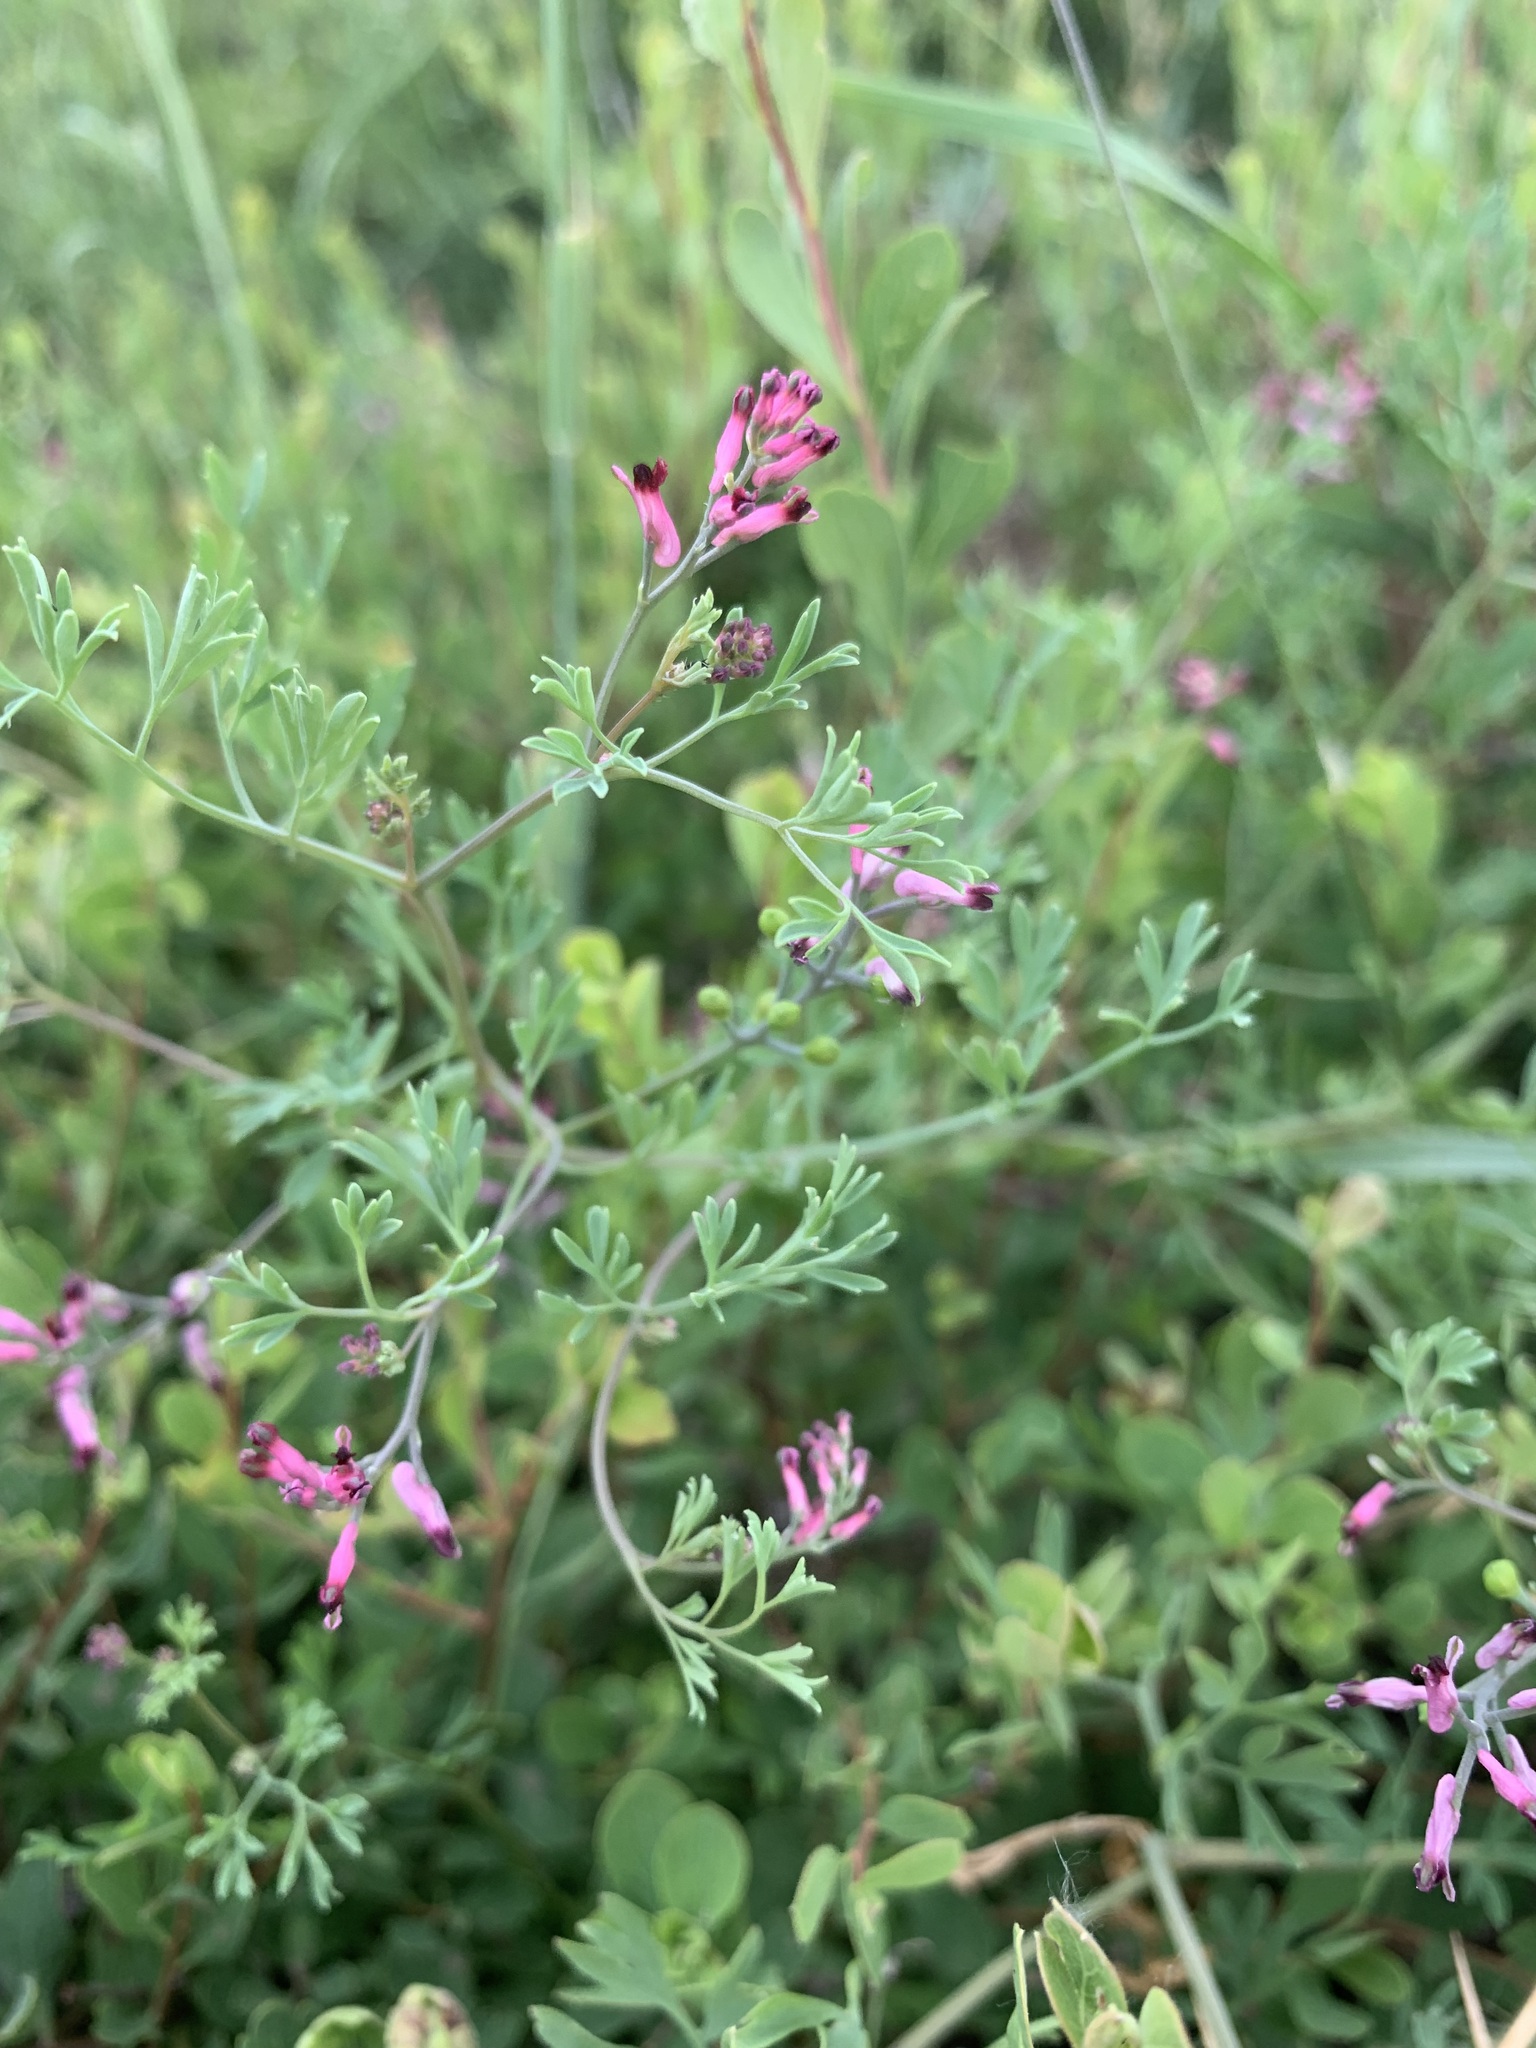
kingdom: Plantae
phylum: Tracheophyta
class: Magnoliopsida
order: Ranunculales
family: Papaveraceae
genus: Fumaria
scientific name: Fumaria schleicheri
